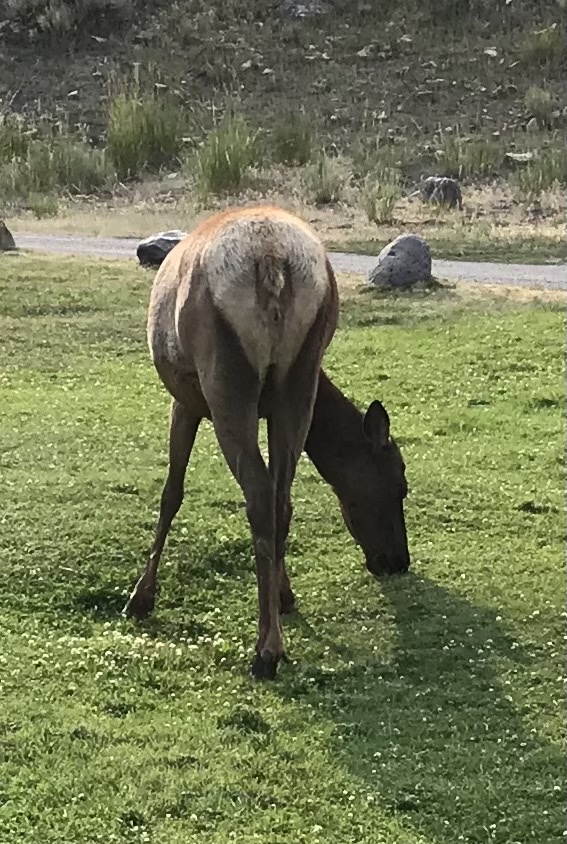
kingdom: Animalia
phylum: Chordata
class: Mammalia
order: Artiodactyla
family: Cervidae
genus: Cervus
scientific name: Cervus elaphus
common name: Red deer
